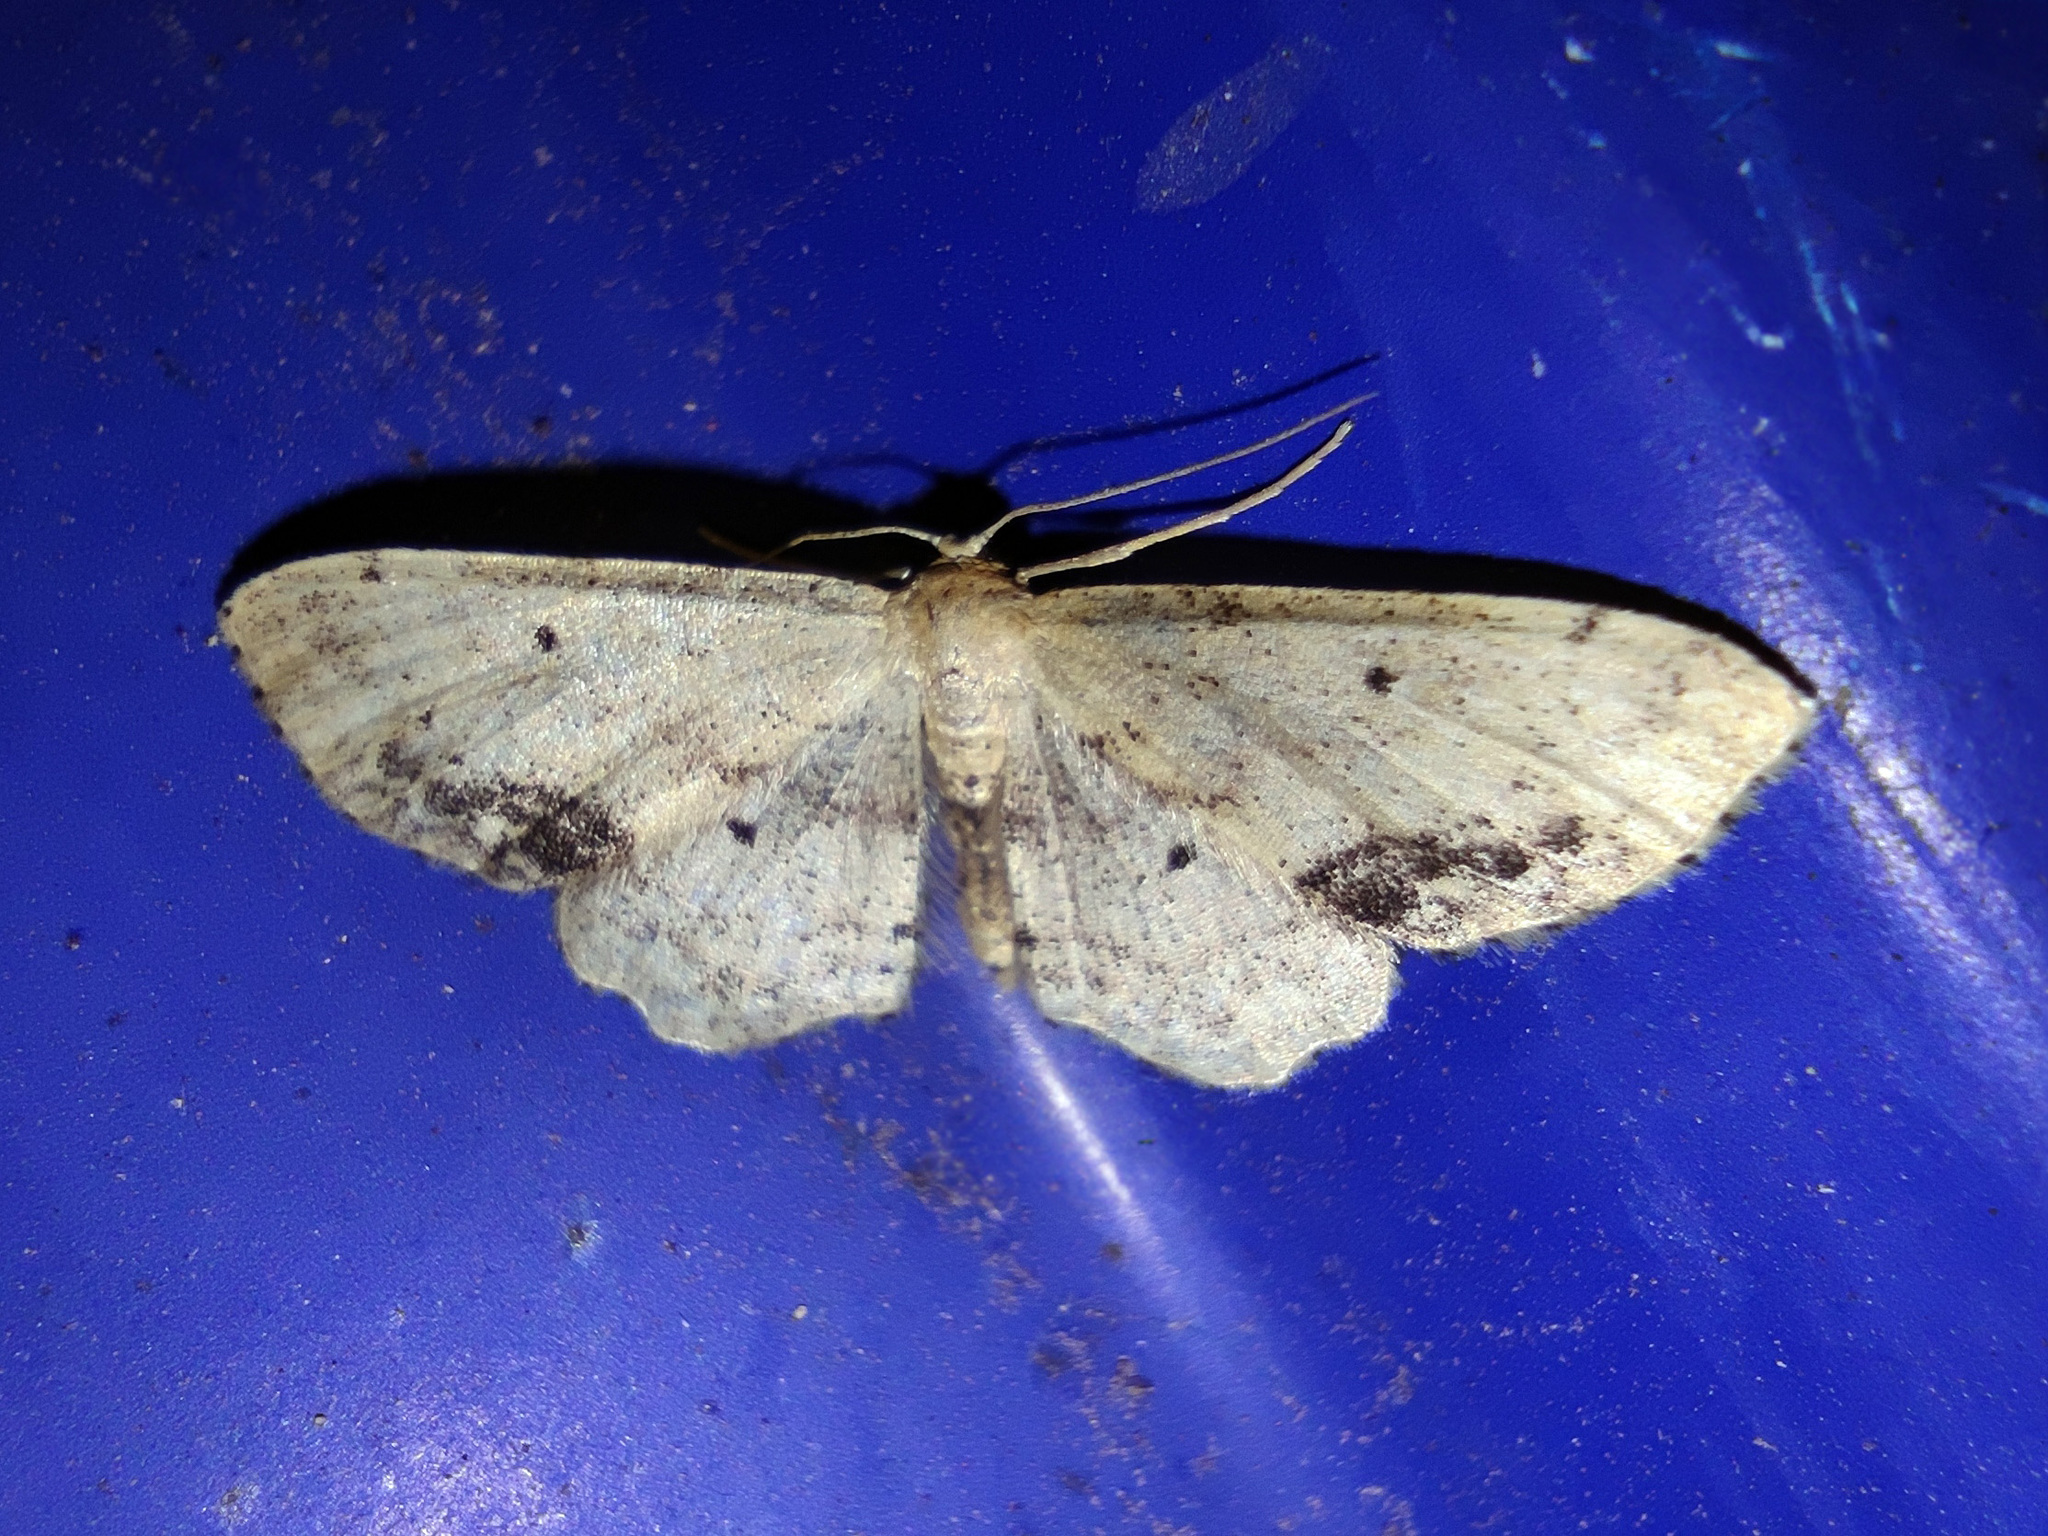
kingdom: Animalia
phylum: Arthropoda
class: Insecta
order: Lepidoptera
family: Geometridae
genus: Idaea
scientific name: Idaea dimidiata
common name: Single-dotted wave
